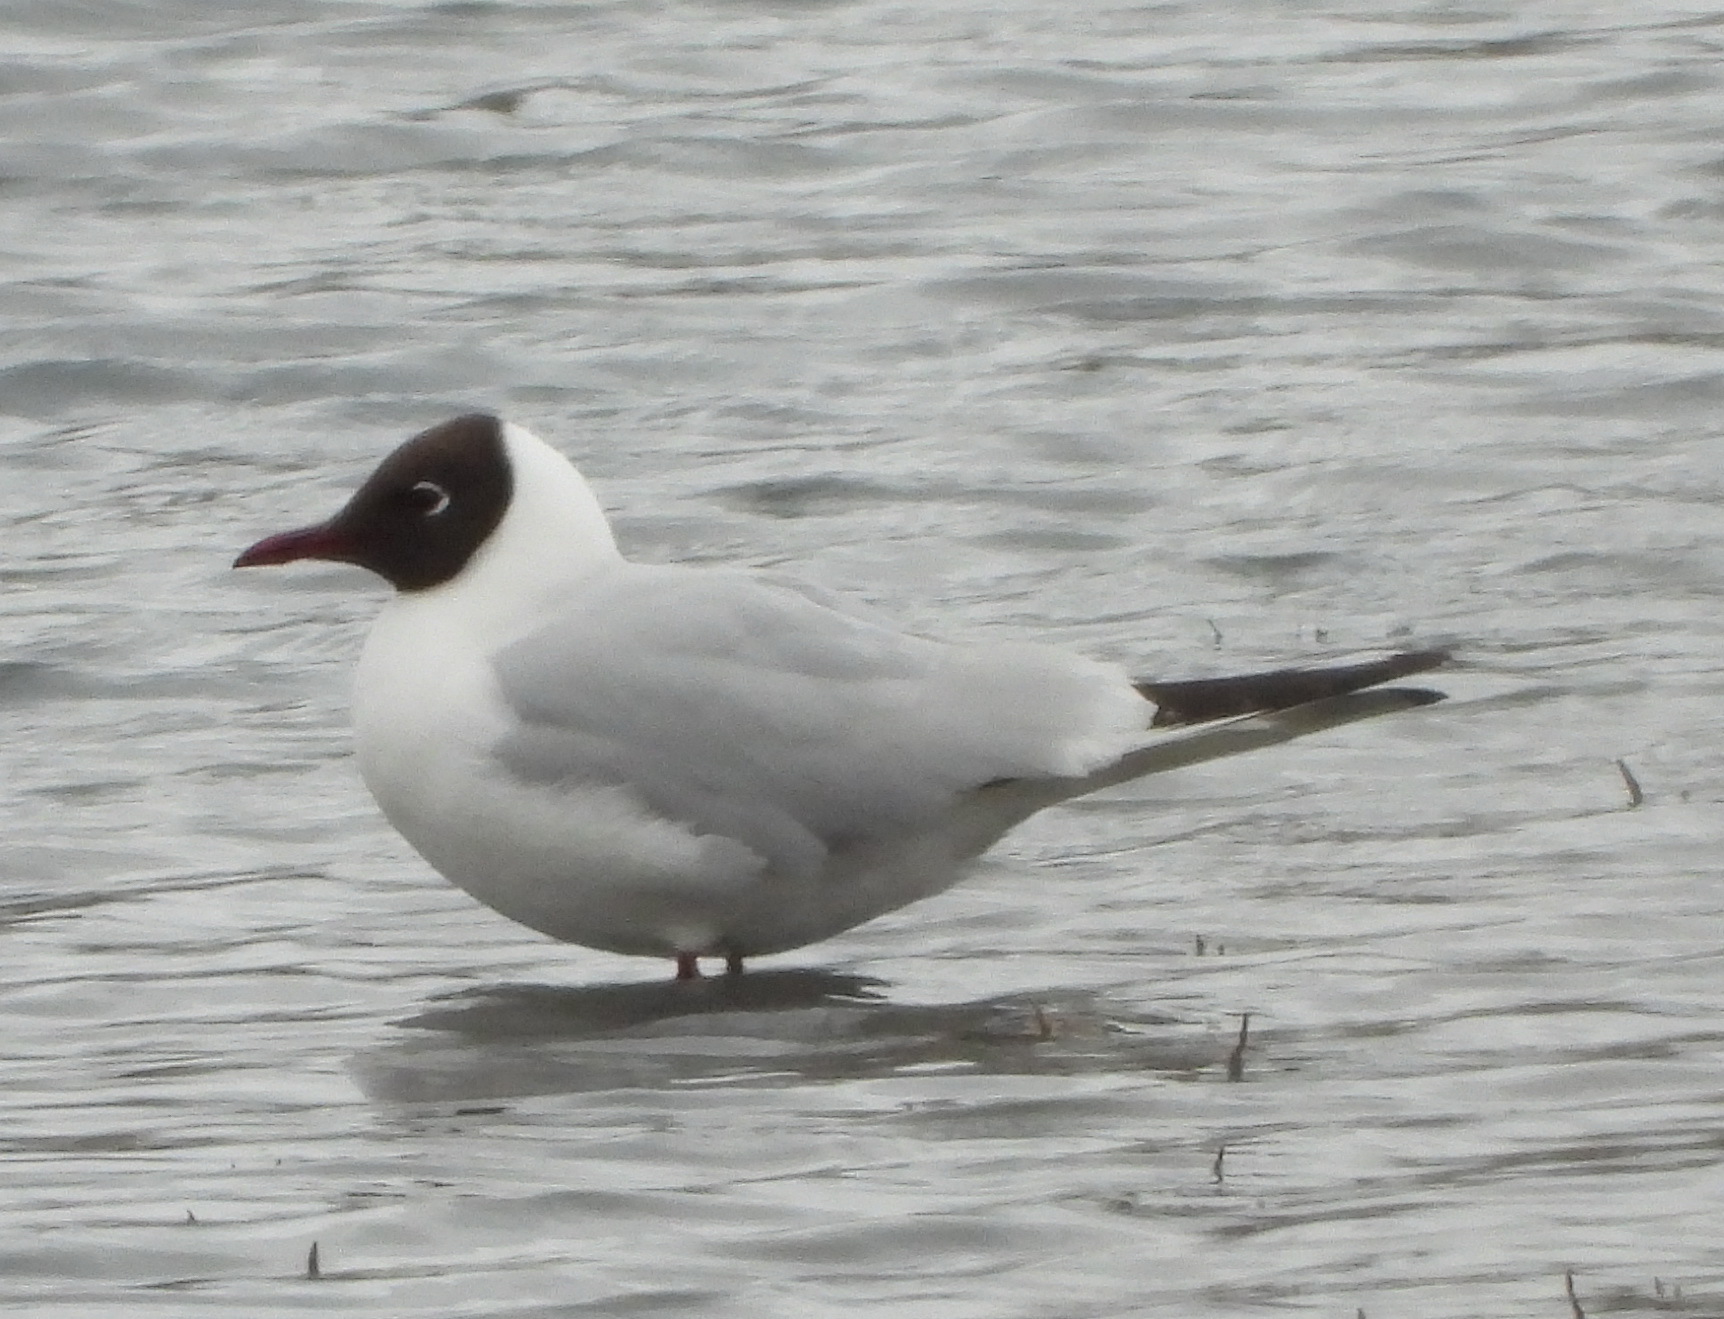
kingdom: Animalia
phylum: Chordata
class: Aves
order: Charadriiformes
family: Laridae
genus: Chroicocephalus
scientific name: Chroicocephalus ridibundus
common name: Black-headed gull
